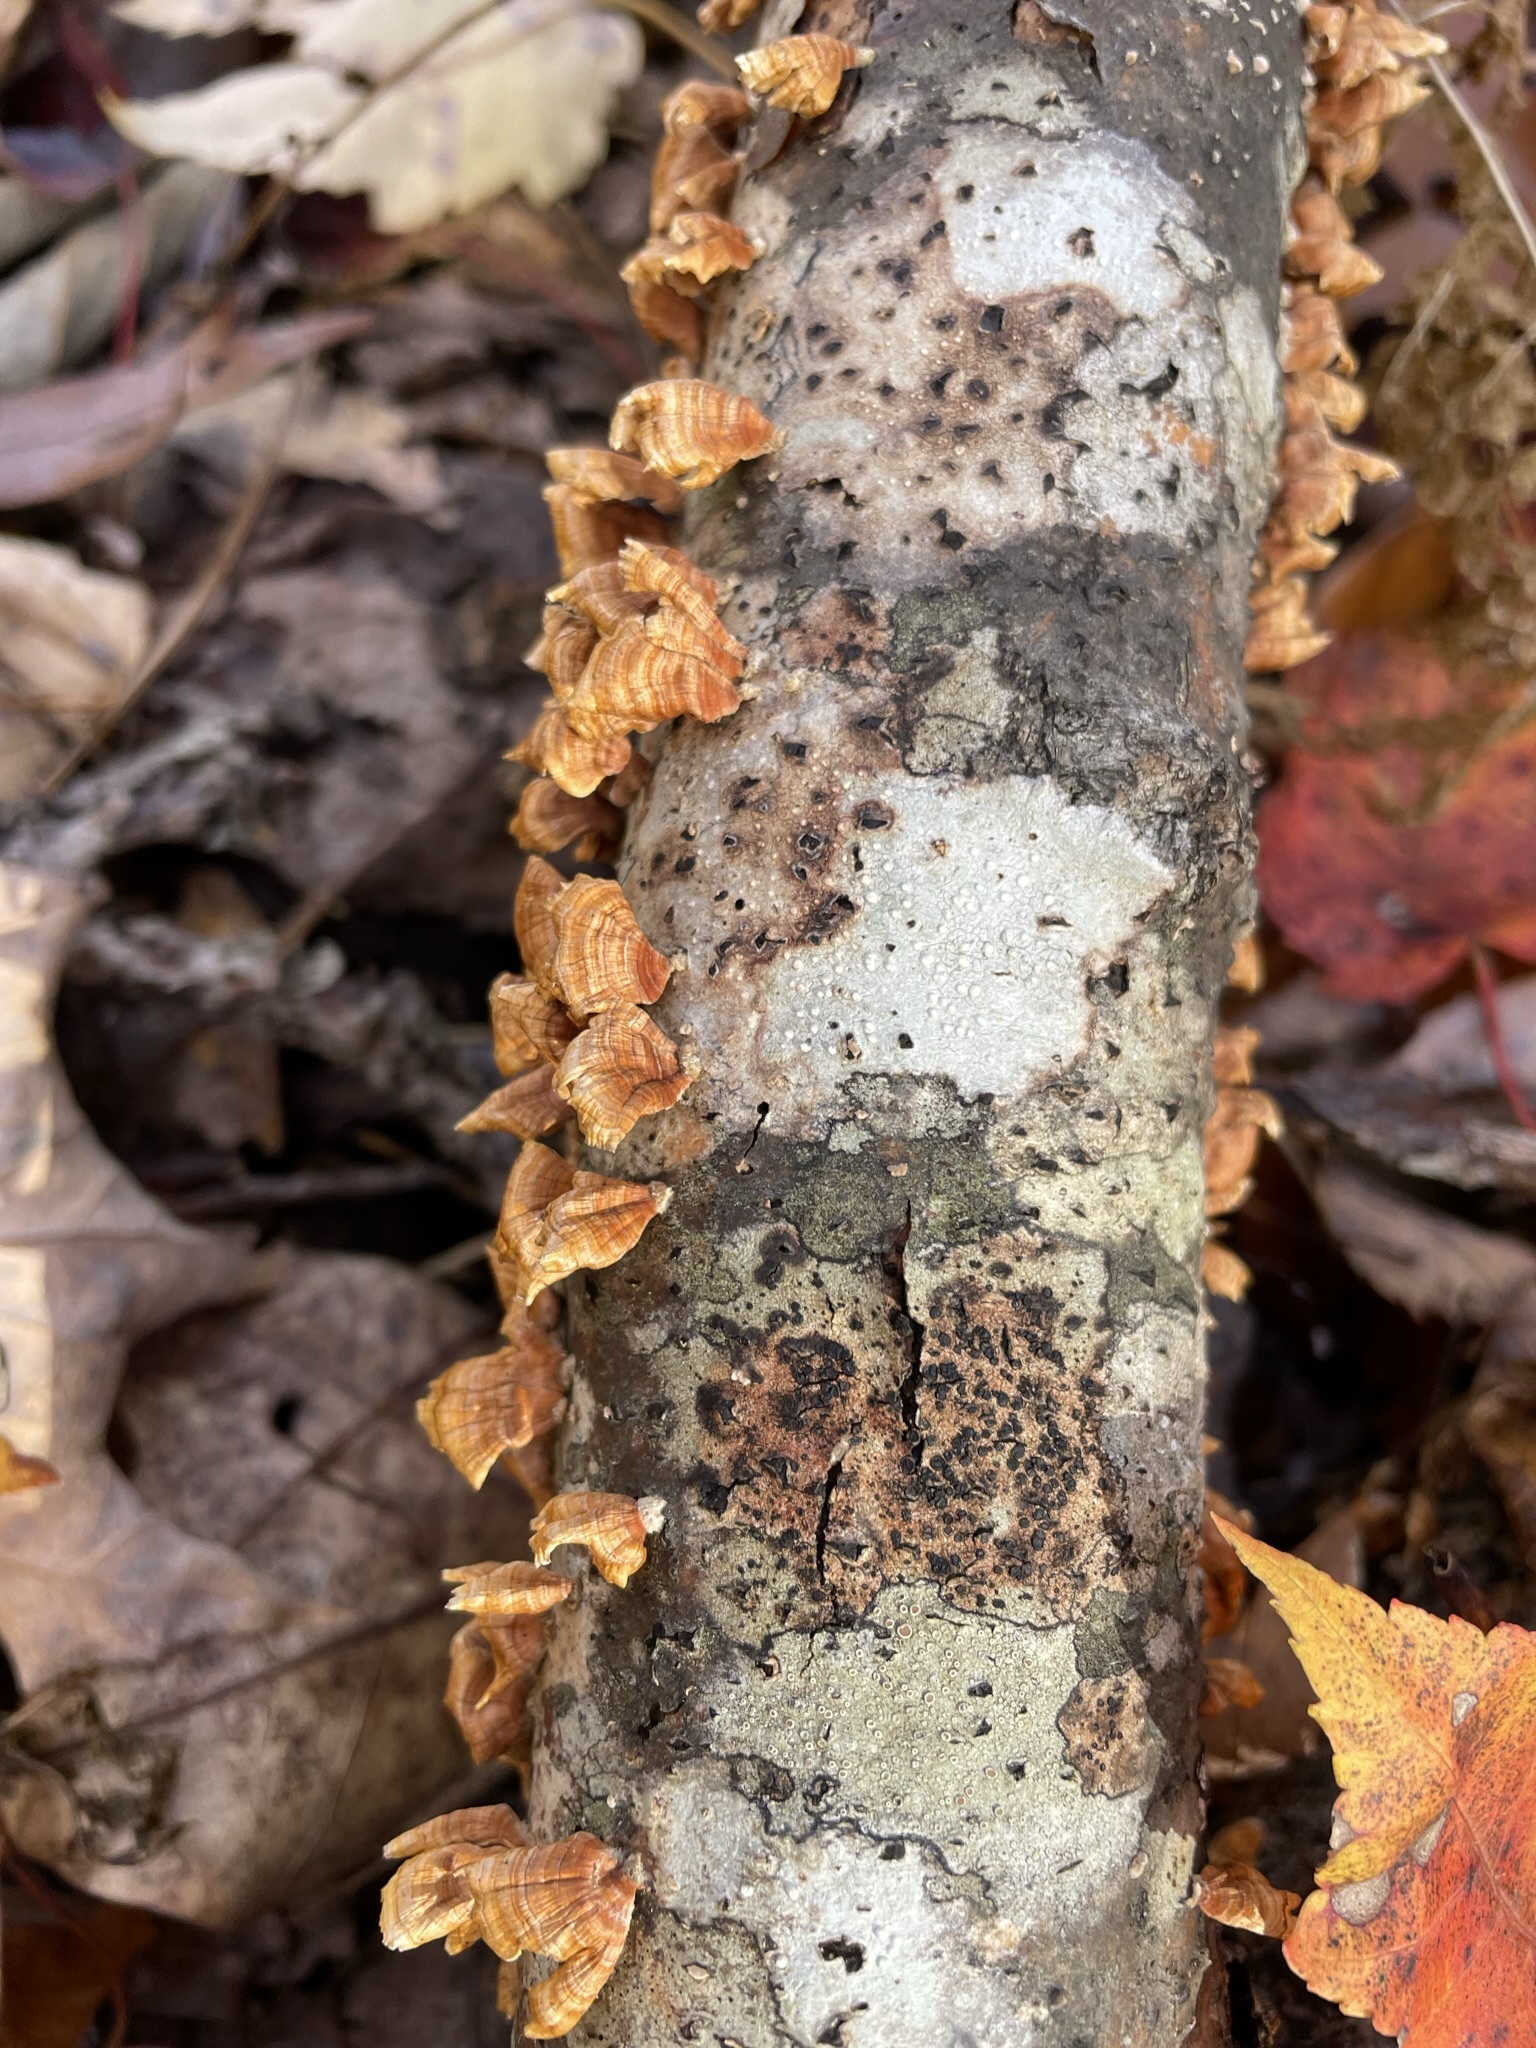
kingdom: Fungi
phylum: Basidiomycota
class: Agaricomycetes
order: Russulales
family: Stereaceae
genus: Stereum
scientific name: Stereum complicatum
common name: Crowded parchment
